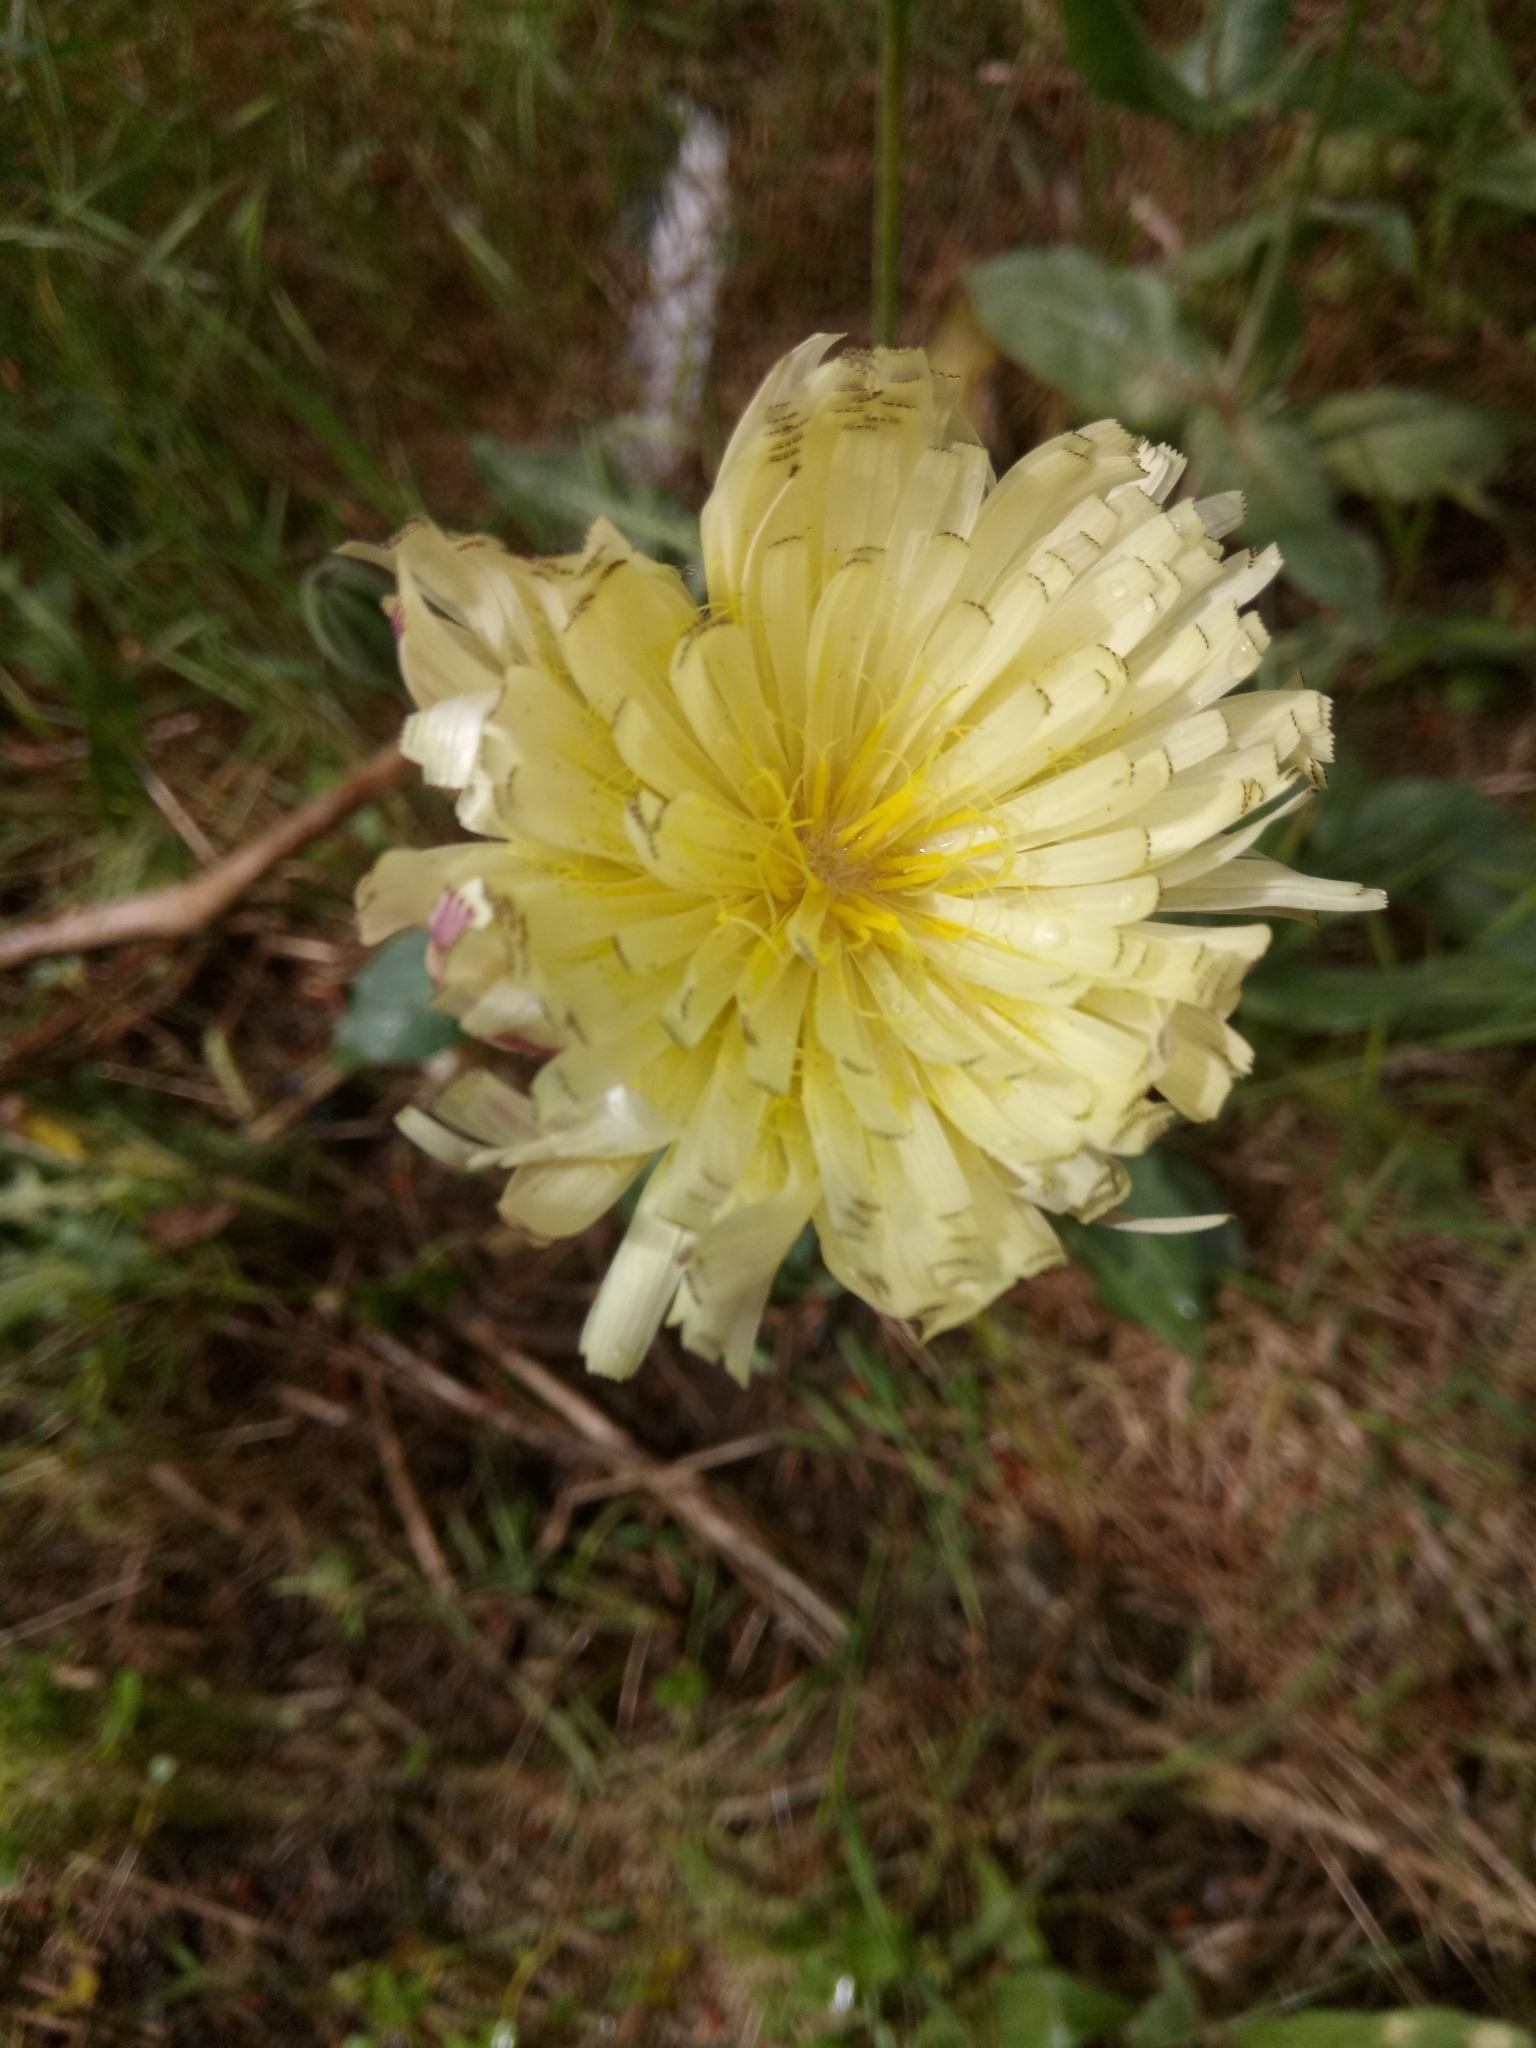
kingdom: Plantae
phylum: Tracheophyta
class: Magnoliopsida
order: Asterales
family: Asteraceae
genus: Urospermum
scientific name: Urospermum dalechampii
